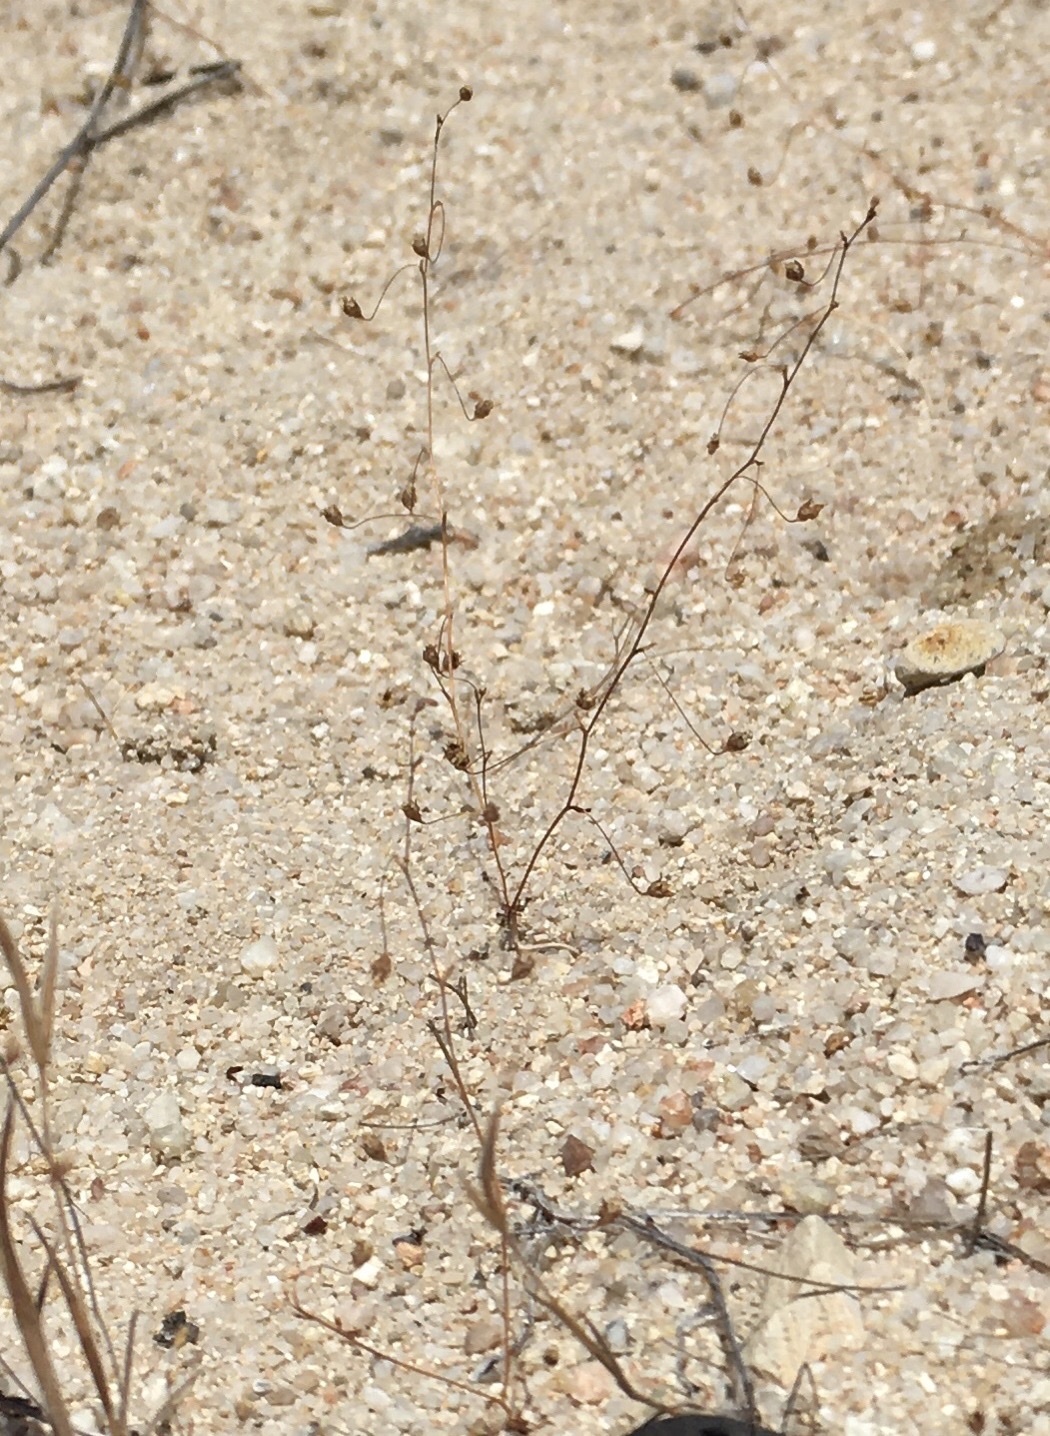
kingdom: Plantae
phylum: Tracheophyta
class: Magnoliopsida
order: Asterales
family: Campanulaceae
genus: Nemacladus
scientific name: Nemacladus secundiflorus
